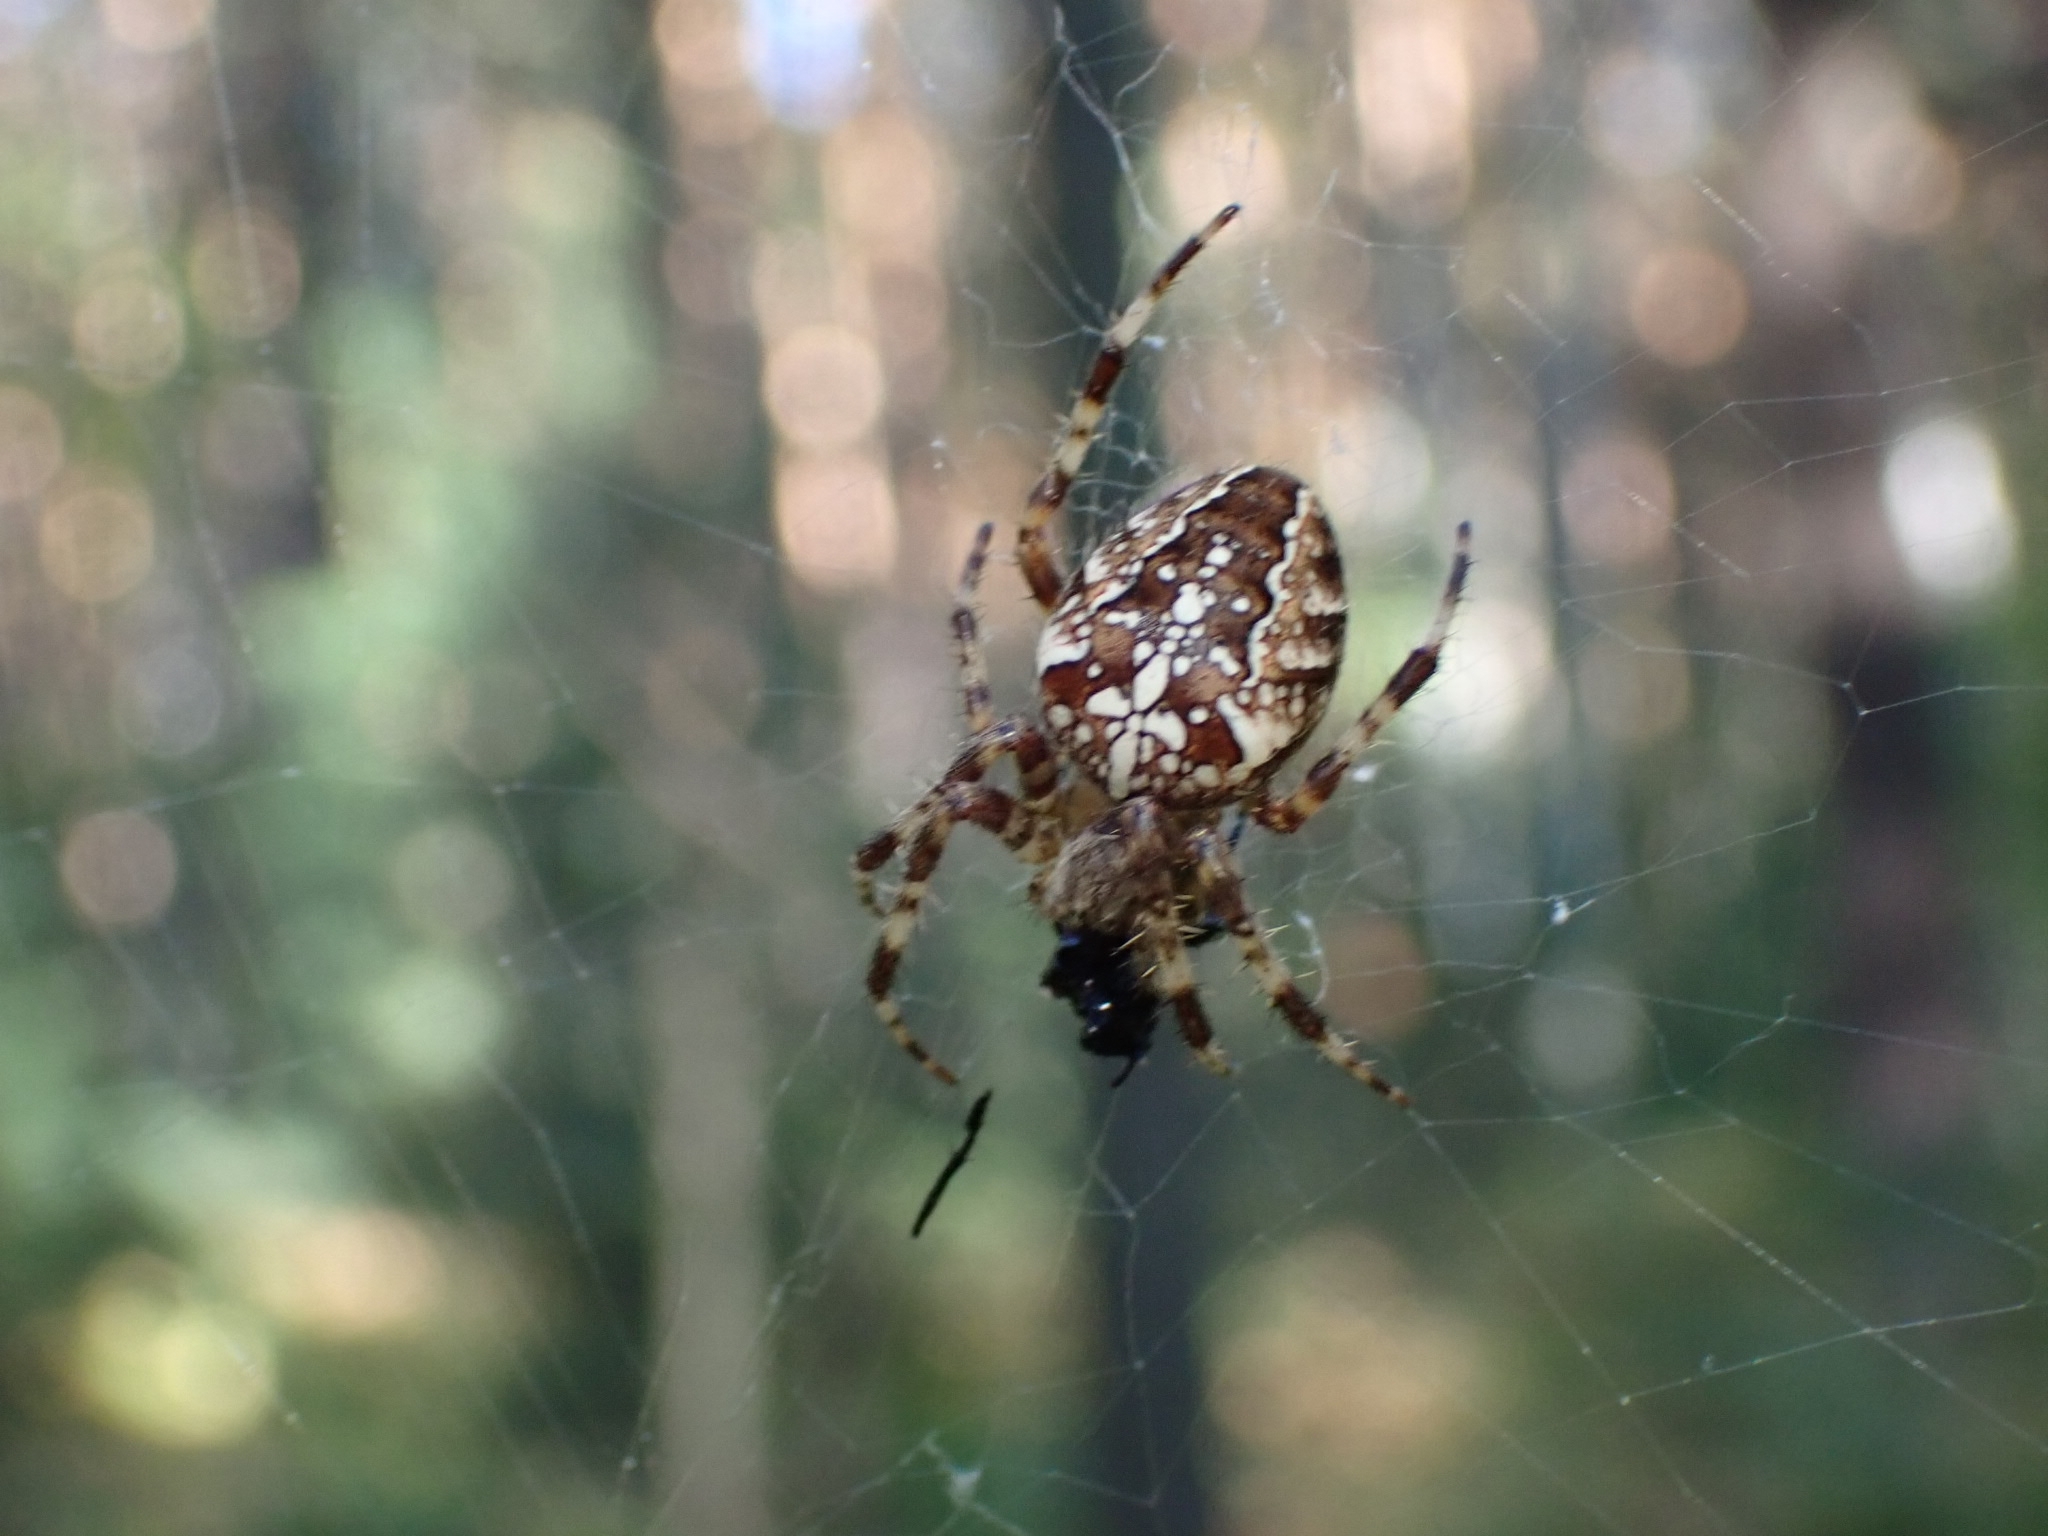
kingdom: Animalia
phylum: Arthropoda
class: Arachnida
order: Araneae
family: Araneidae
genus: Araneus
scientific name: Araneus diadematus
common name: Cross orbweaver
